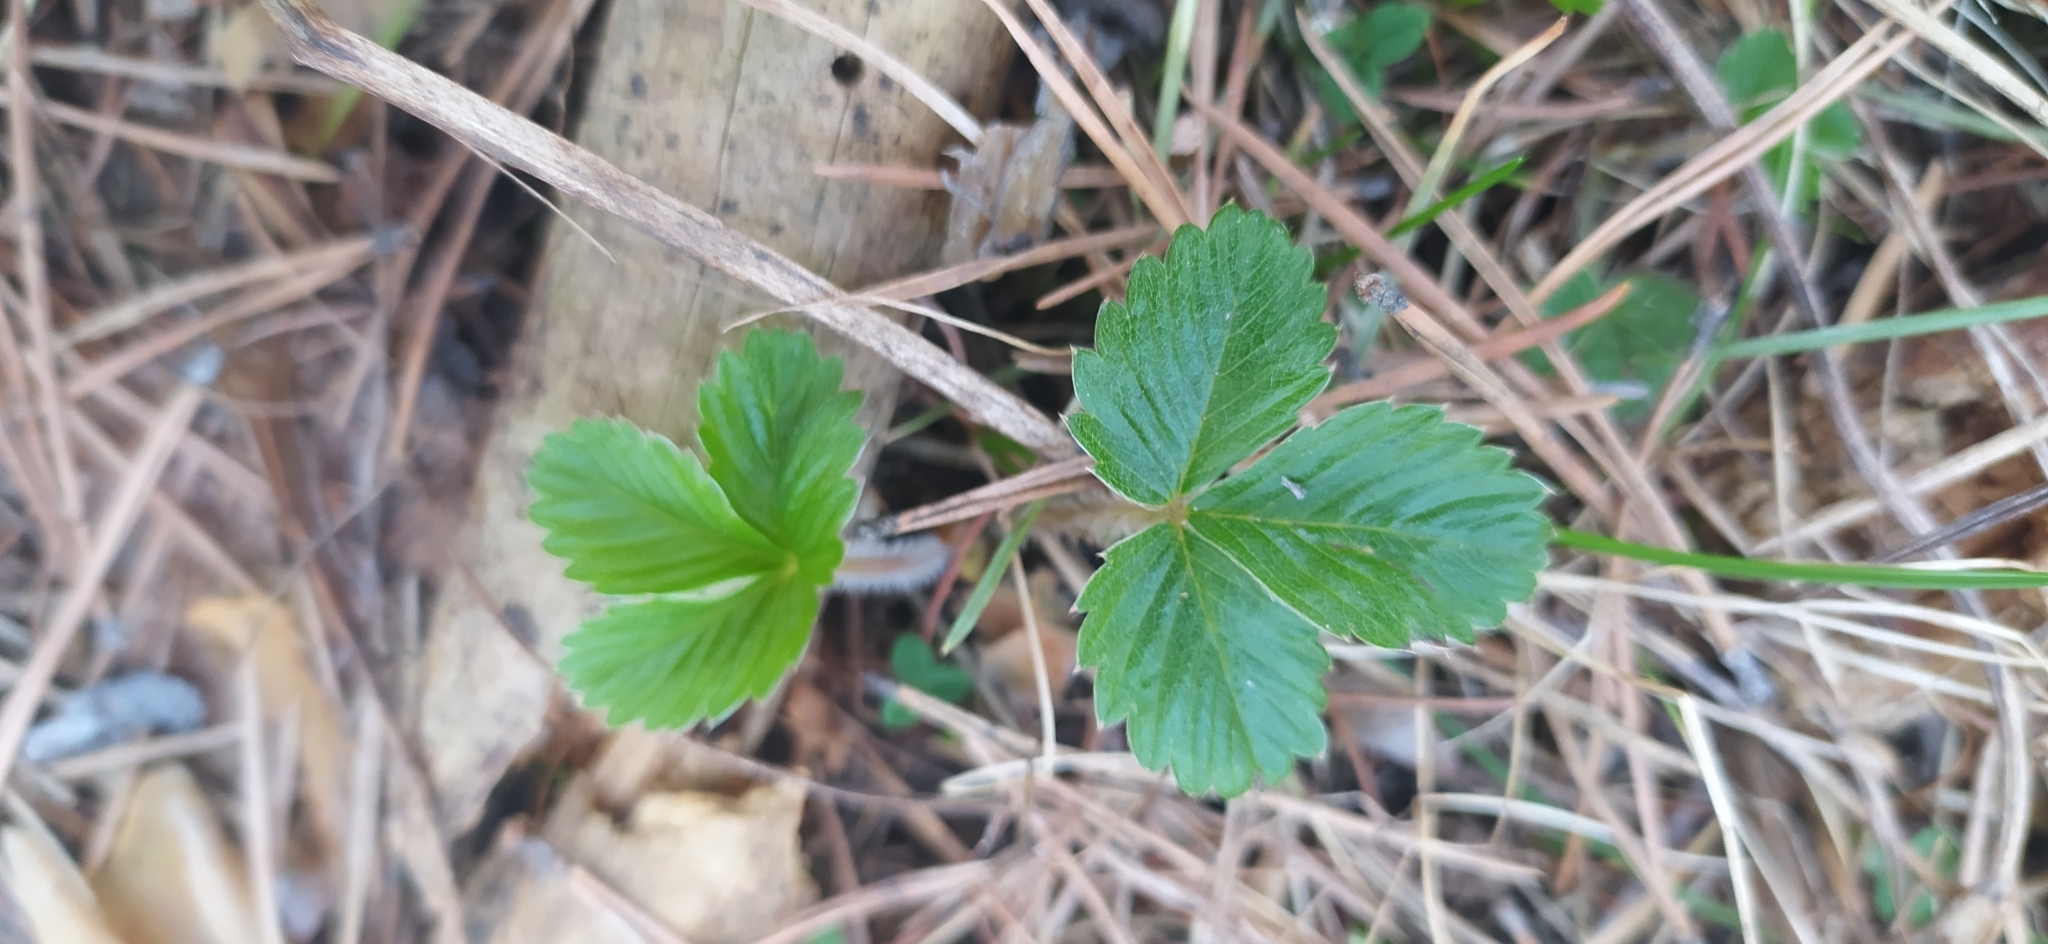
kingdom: Plantae
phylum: Tracheophyta
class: Magnoliopsida
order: Rosales
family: Rosaceae
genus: Fragaria
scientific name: Fragaria vesca
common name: Wild strawberry
